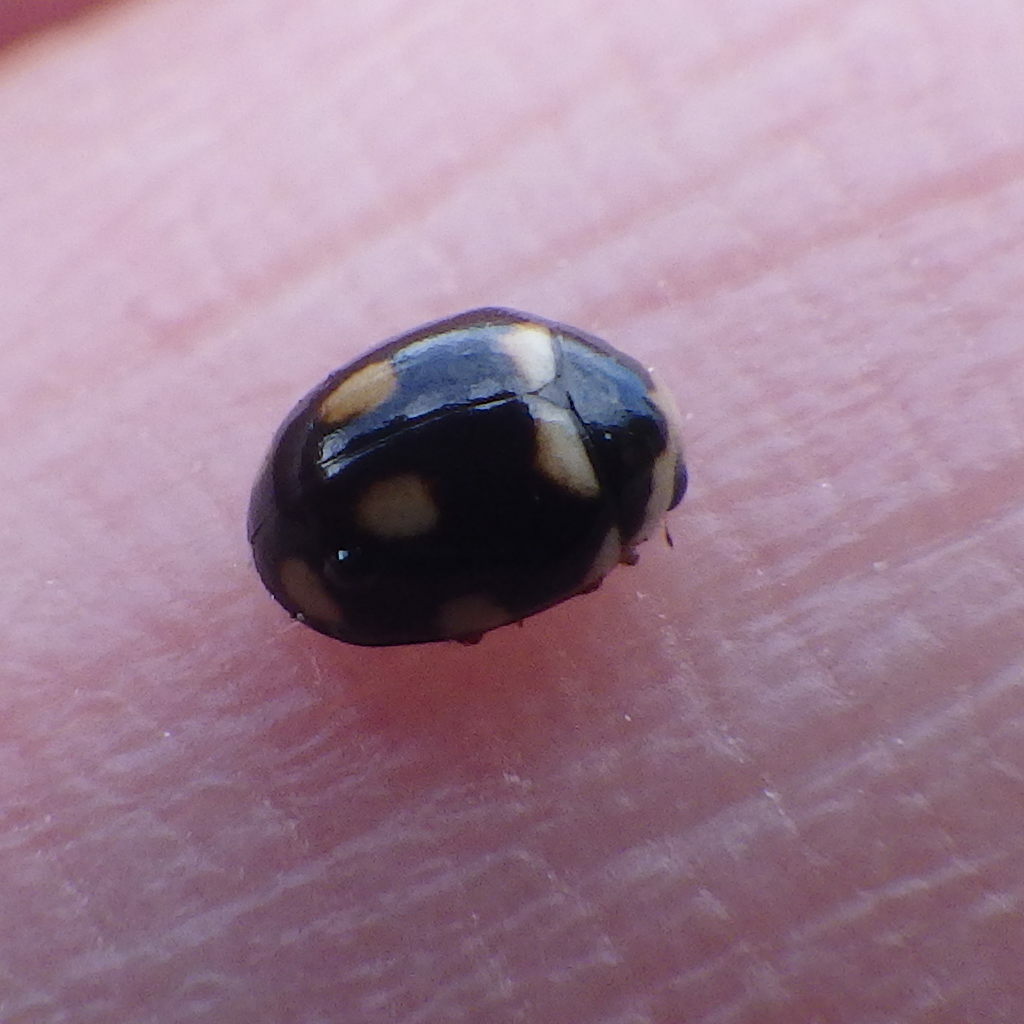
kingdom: Animalia
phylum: Arthropoda
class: Insecta
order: Coleoptera
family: Coccinellidae
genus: Brachiacantha
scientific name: Brachiacantha decempustulata
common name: Ten-spotted spurleg lady beetle
